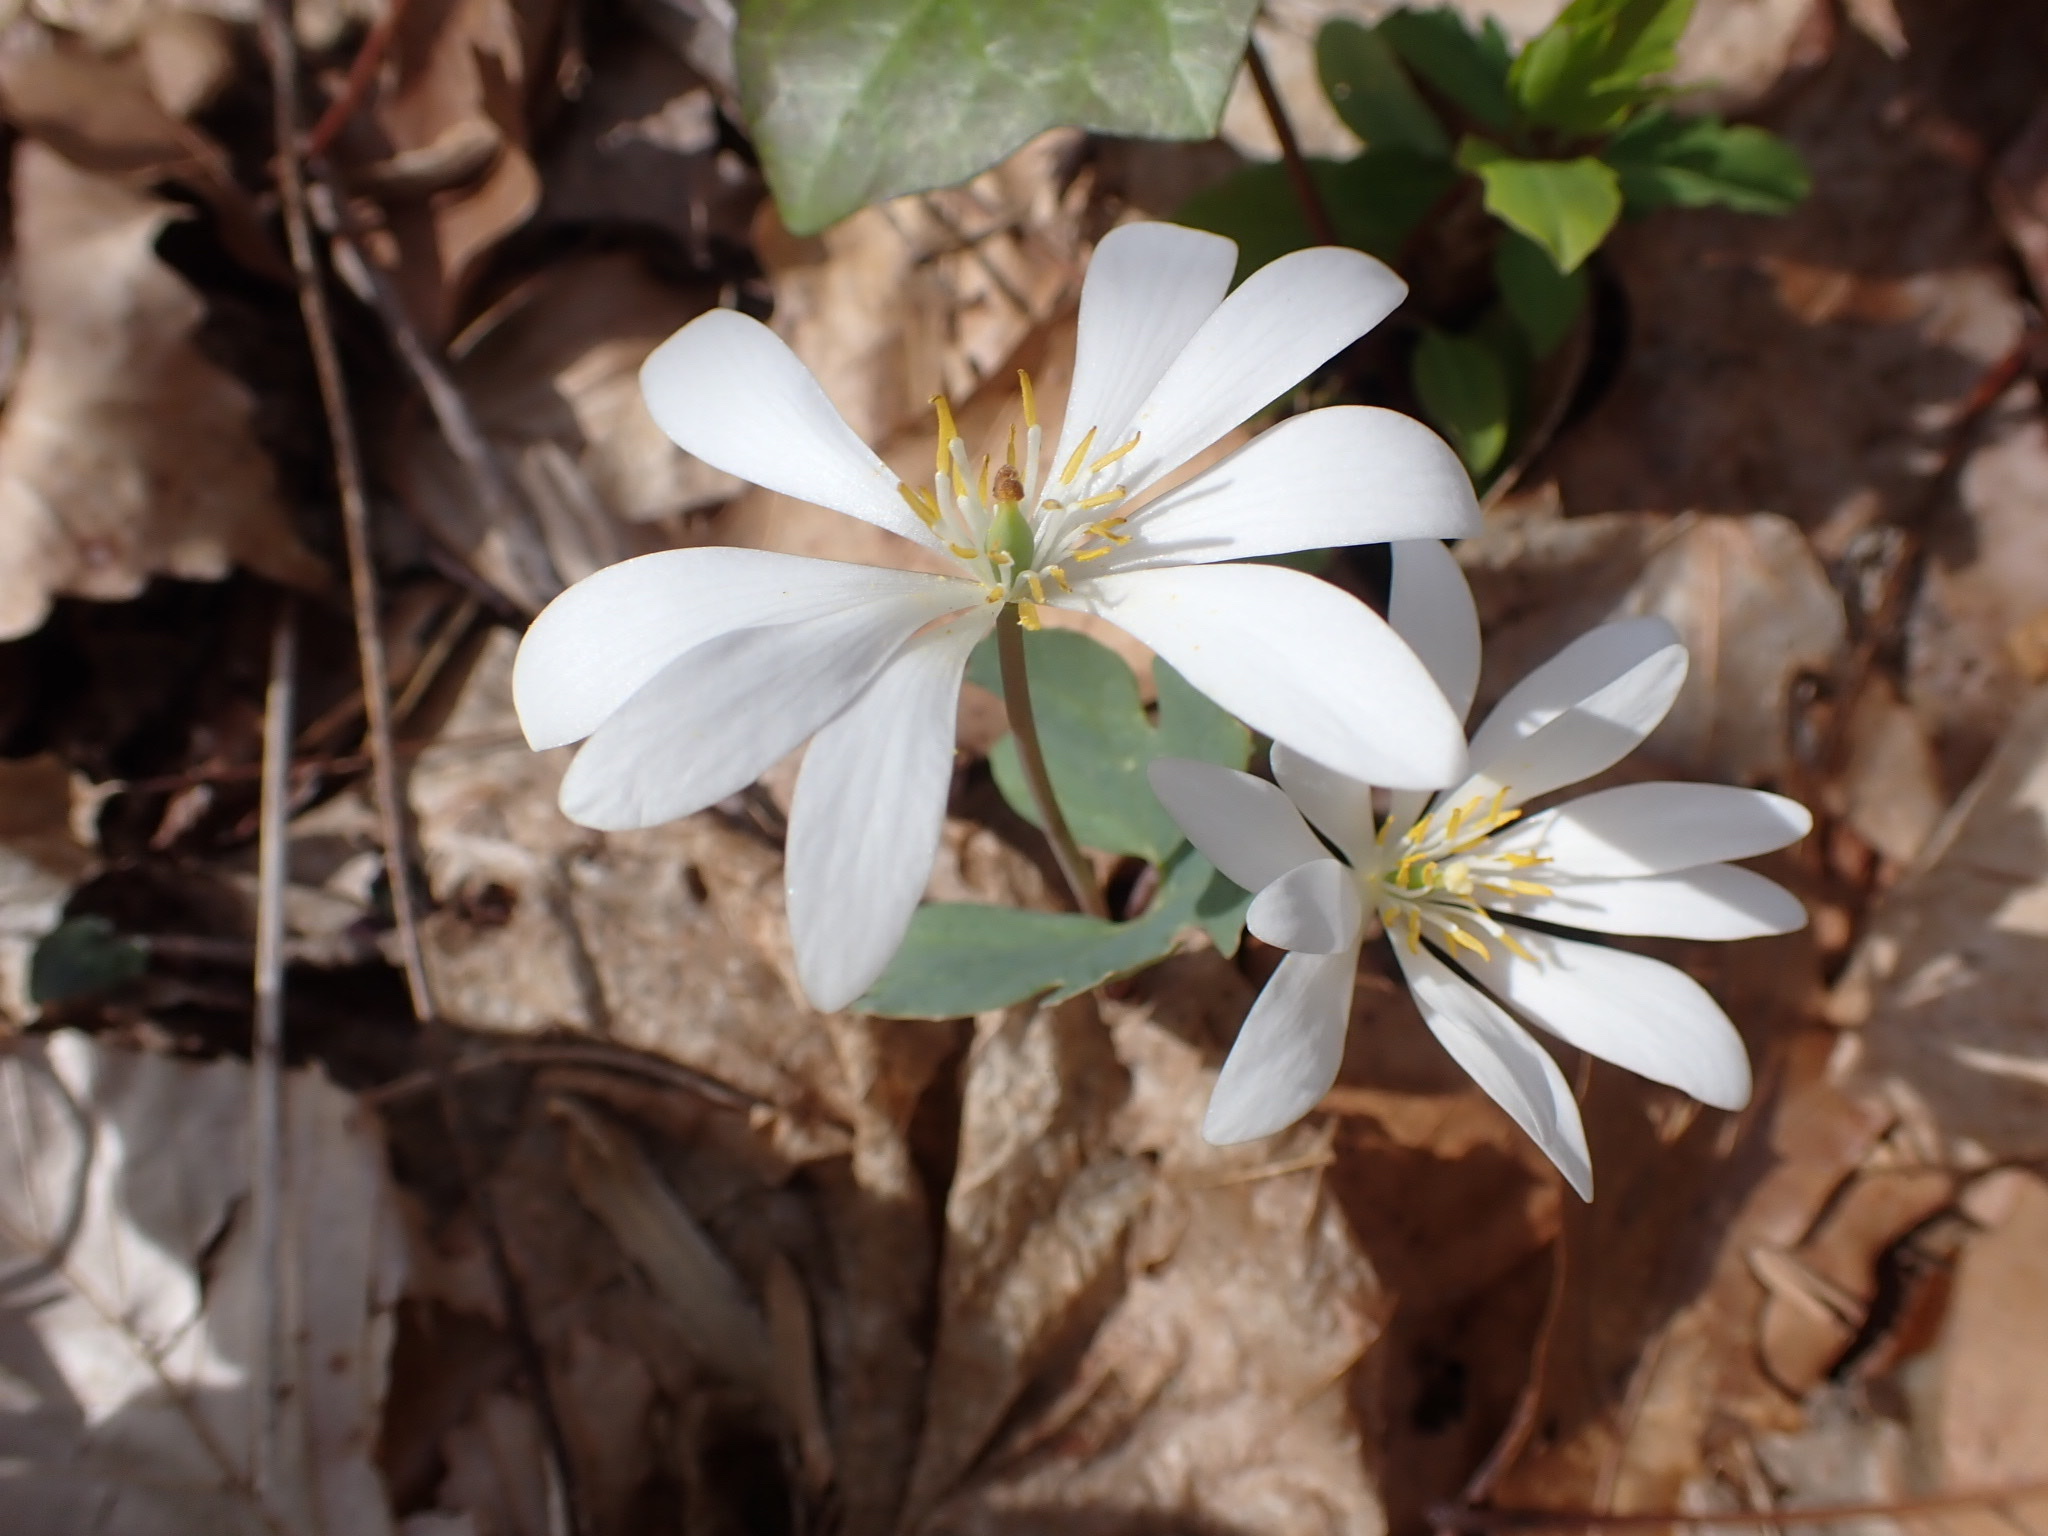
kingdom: Plantae
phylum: Tracheophyta
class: Magnoliopsida
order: Ranunculales
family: Papaveraceae
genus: Sanguinaria
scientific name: Sanguinaria canadensis
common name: Bloodroot
